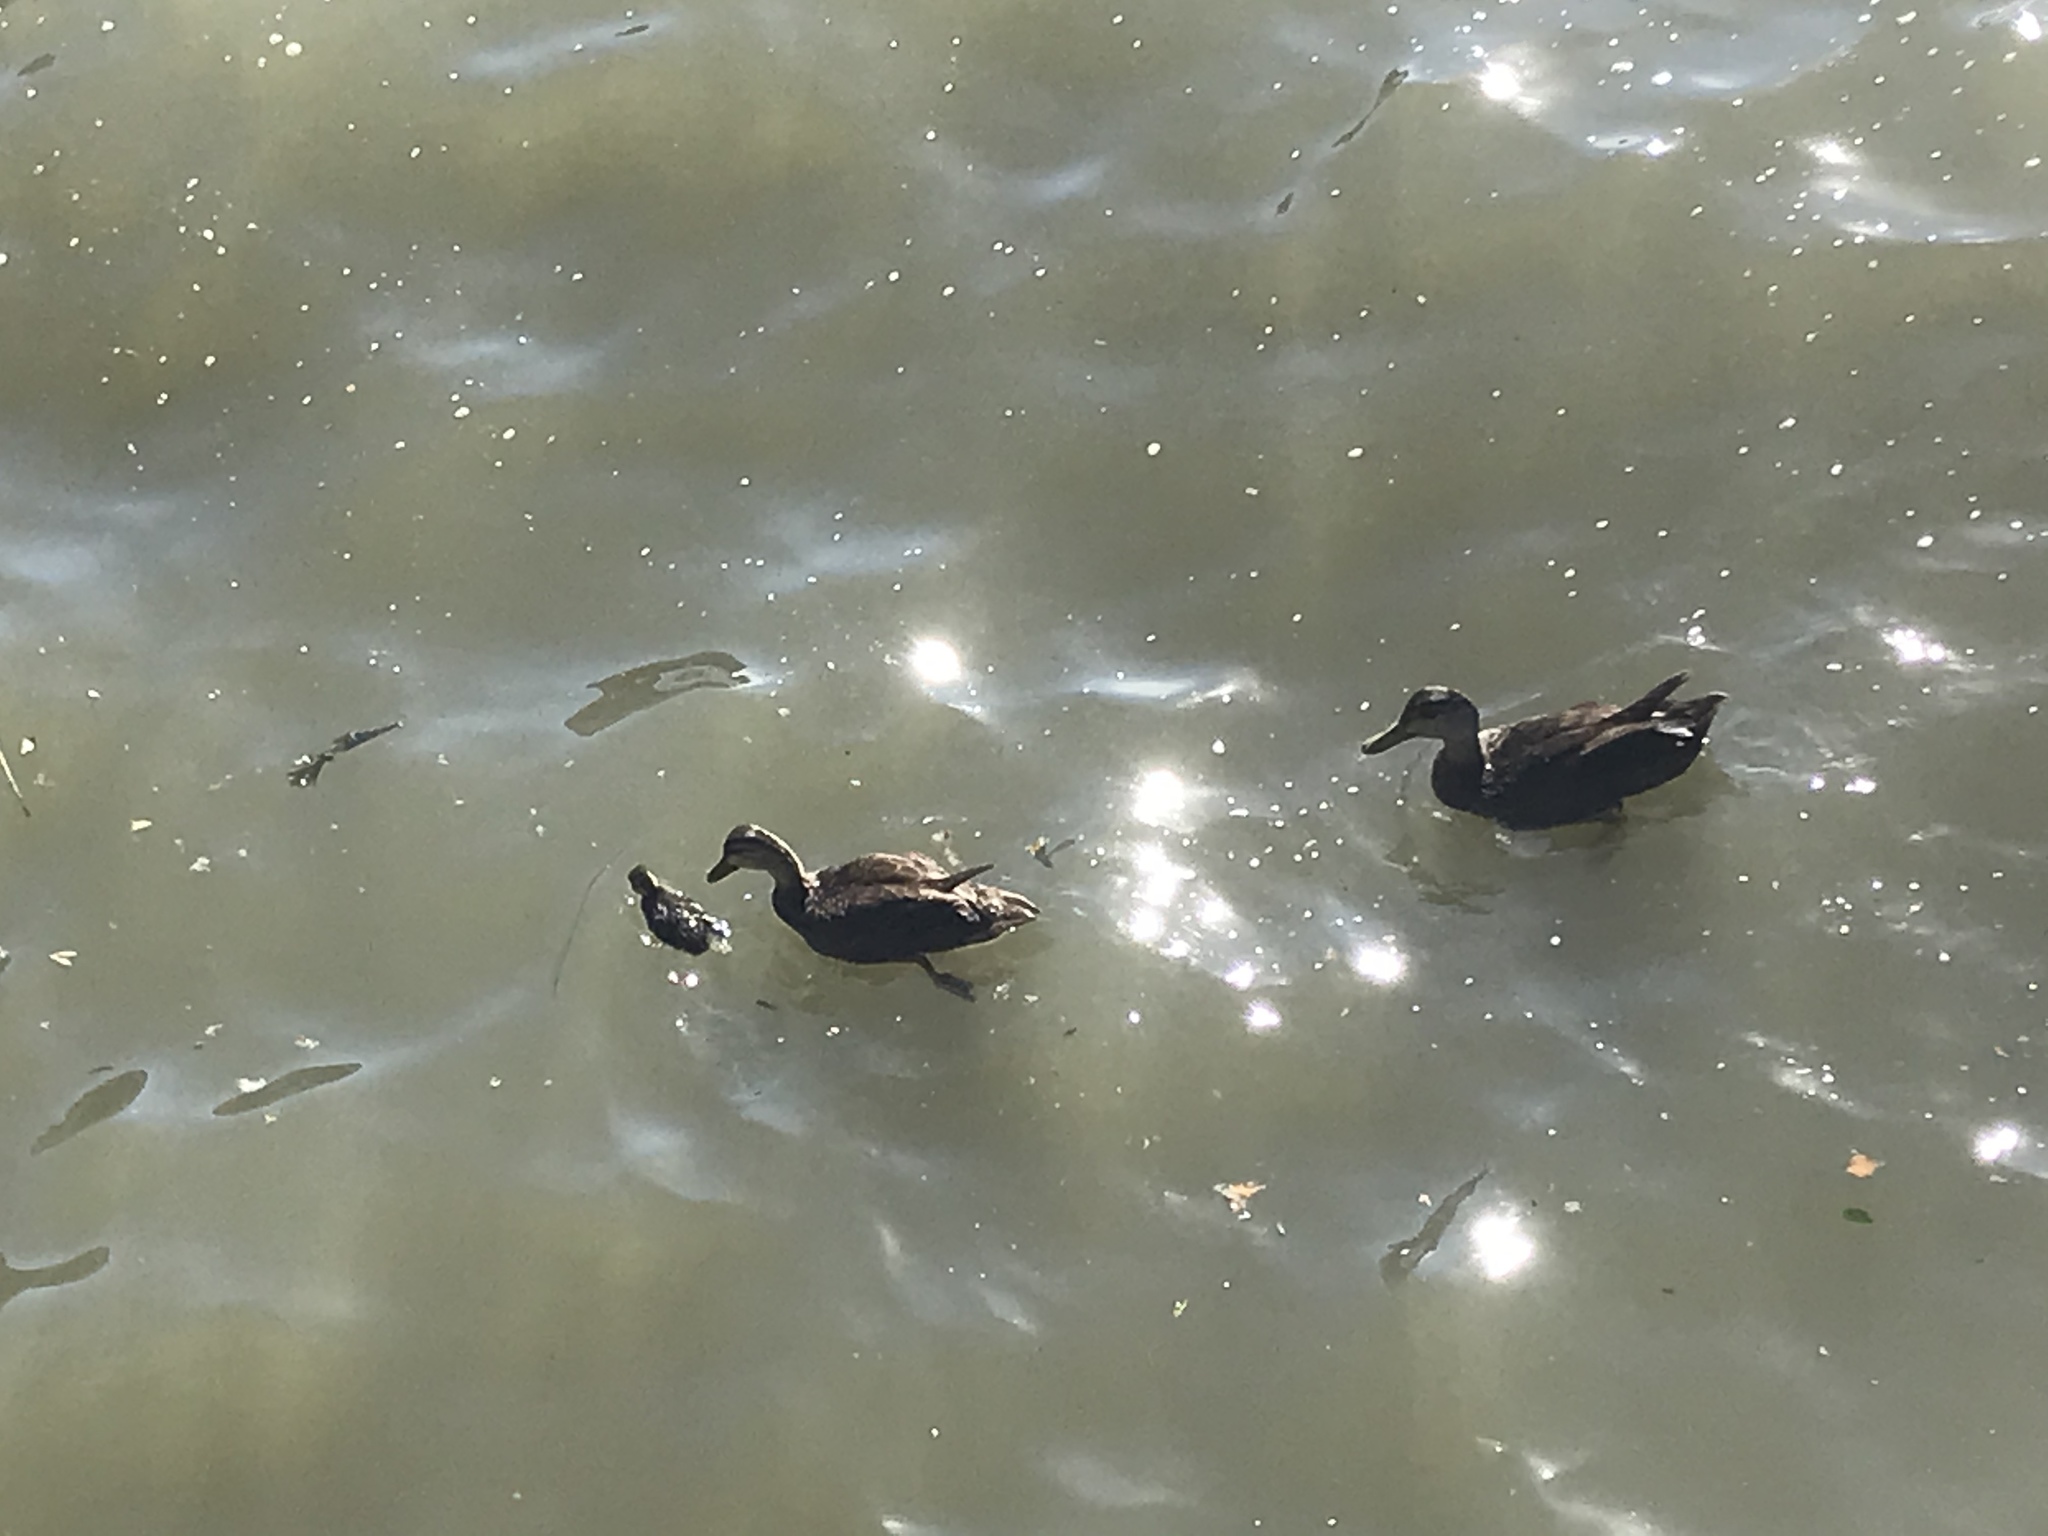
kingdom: Animalia
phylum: Chordata
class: Aves
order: Anseriformes
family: Anatidae
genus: Anas
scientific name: Anas rubripes
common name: American black duck
